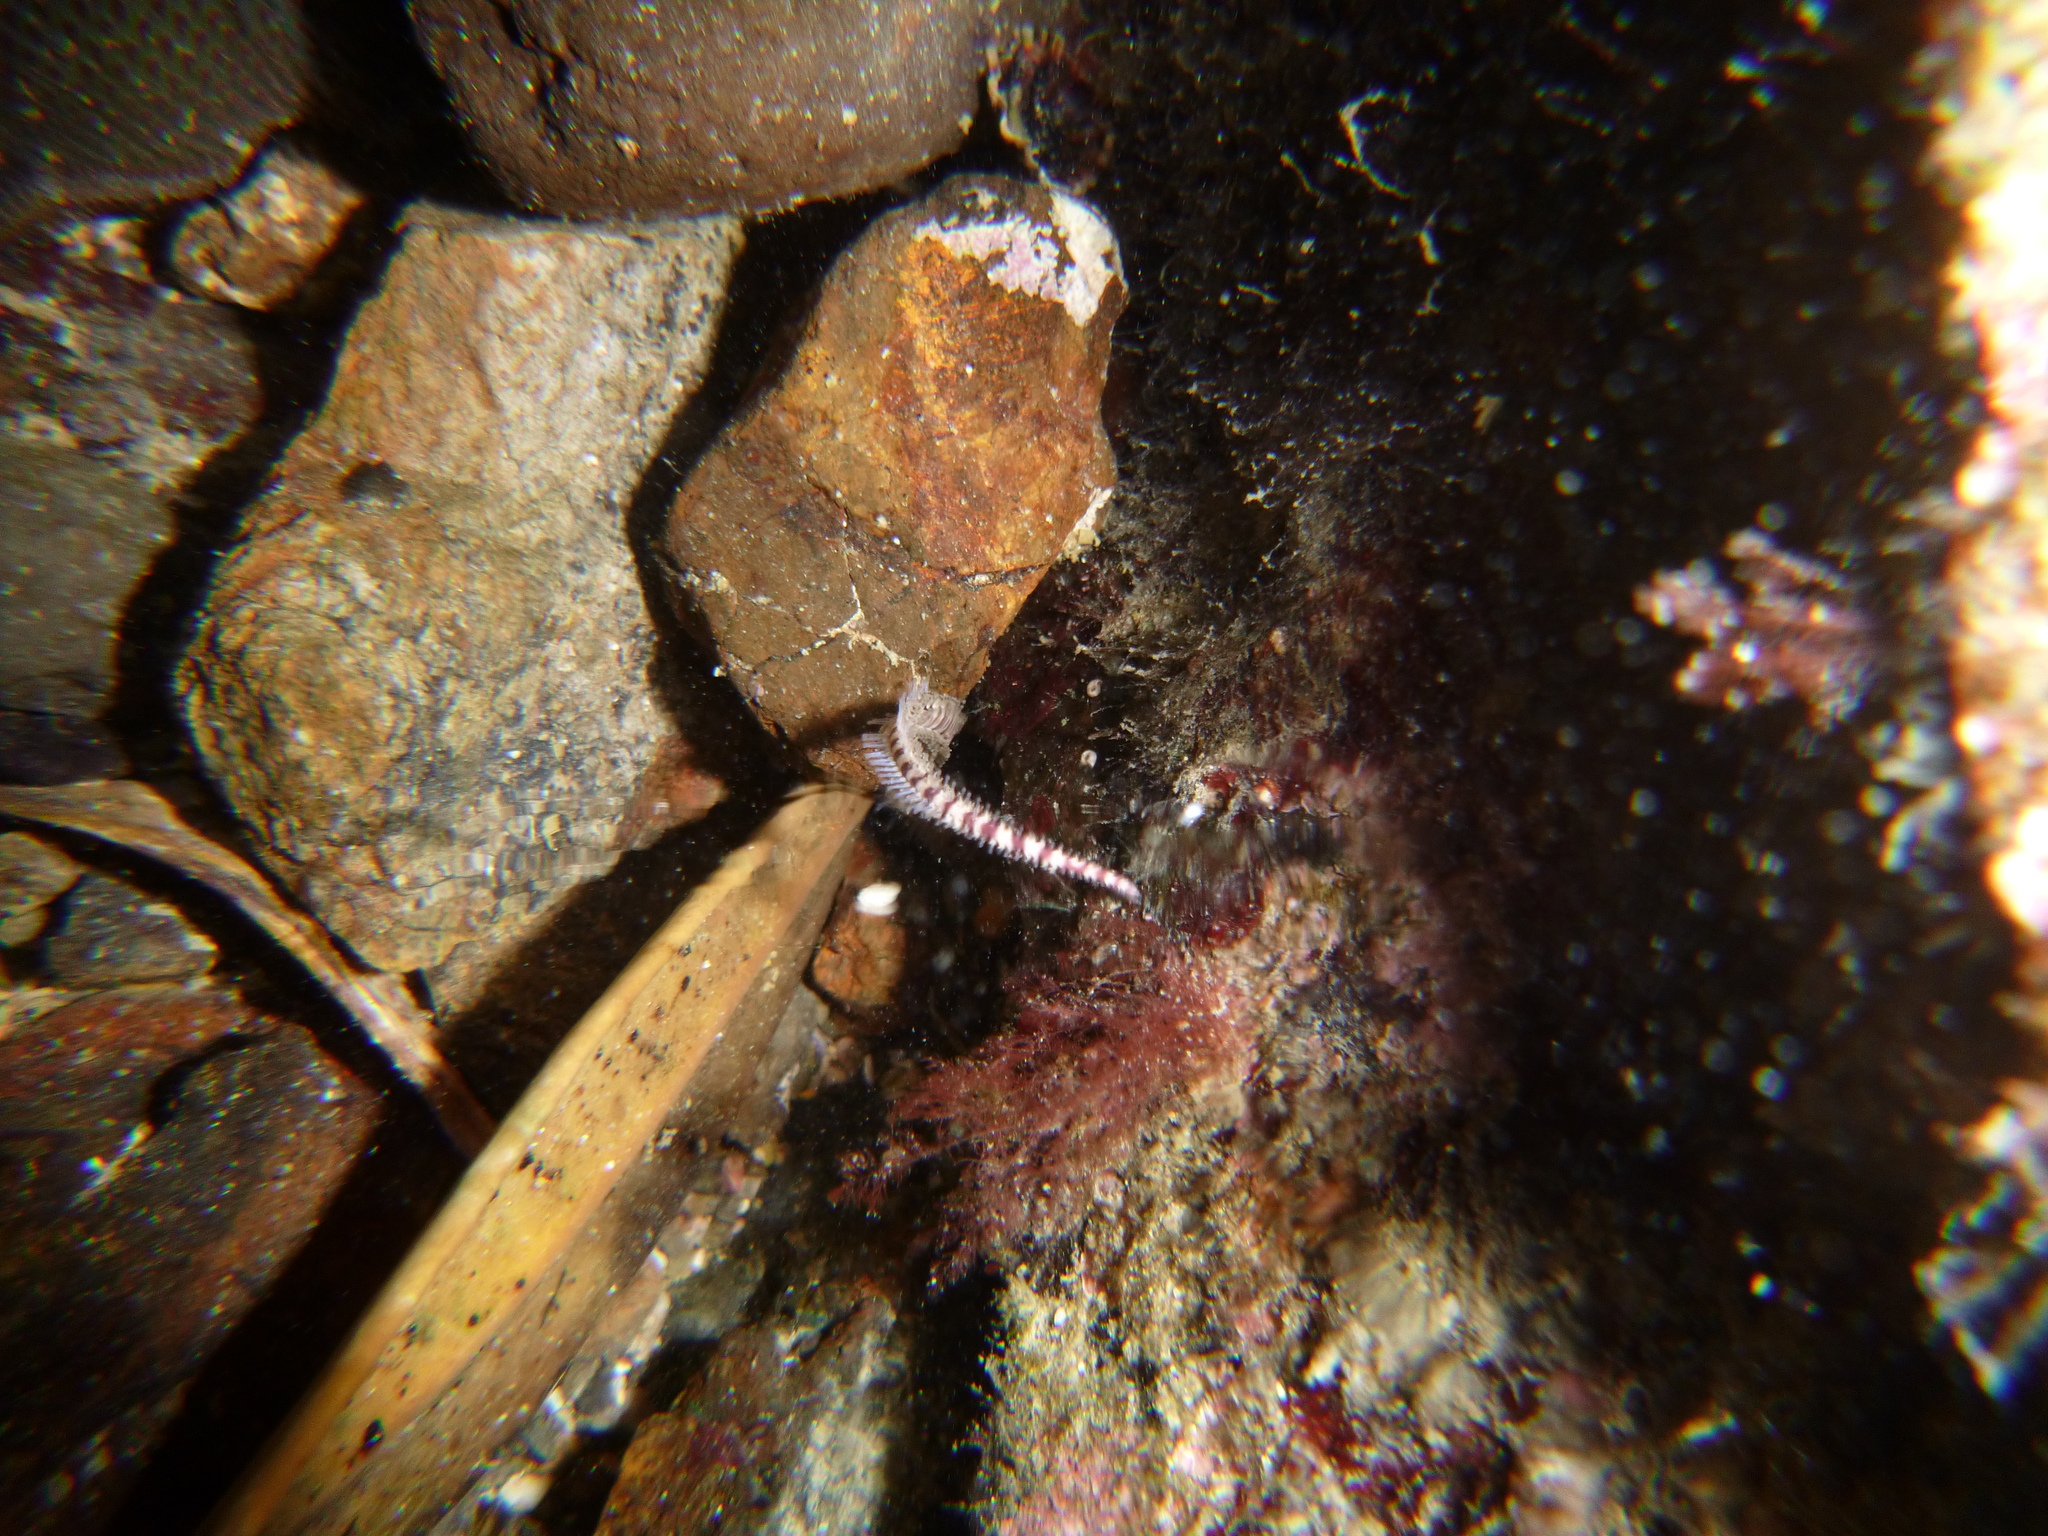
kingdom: Animalia
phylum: Echinodermata
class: Ophiuroidea
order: Amphilepidida
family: Ophionereididae
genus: Ophionereis
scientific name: Ophionereis fasciata
